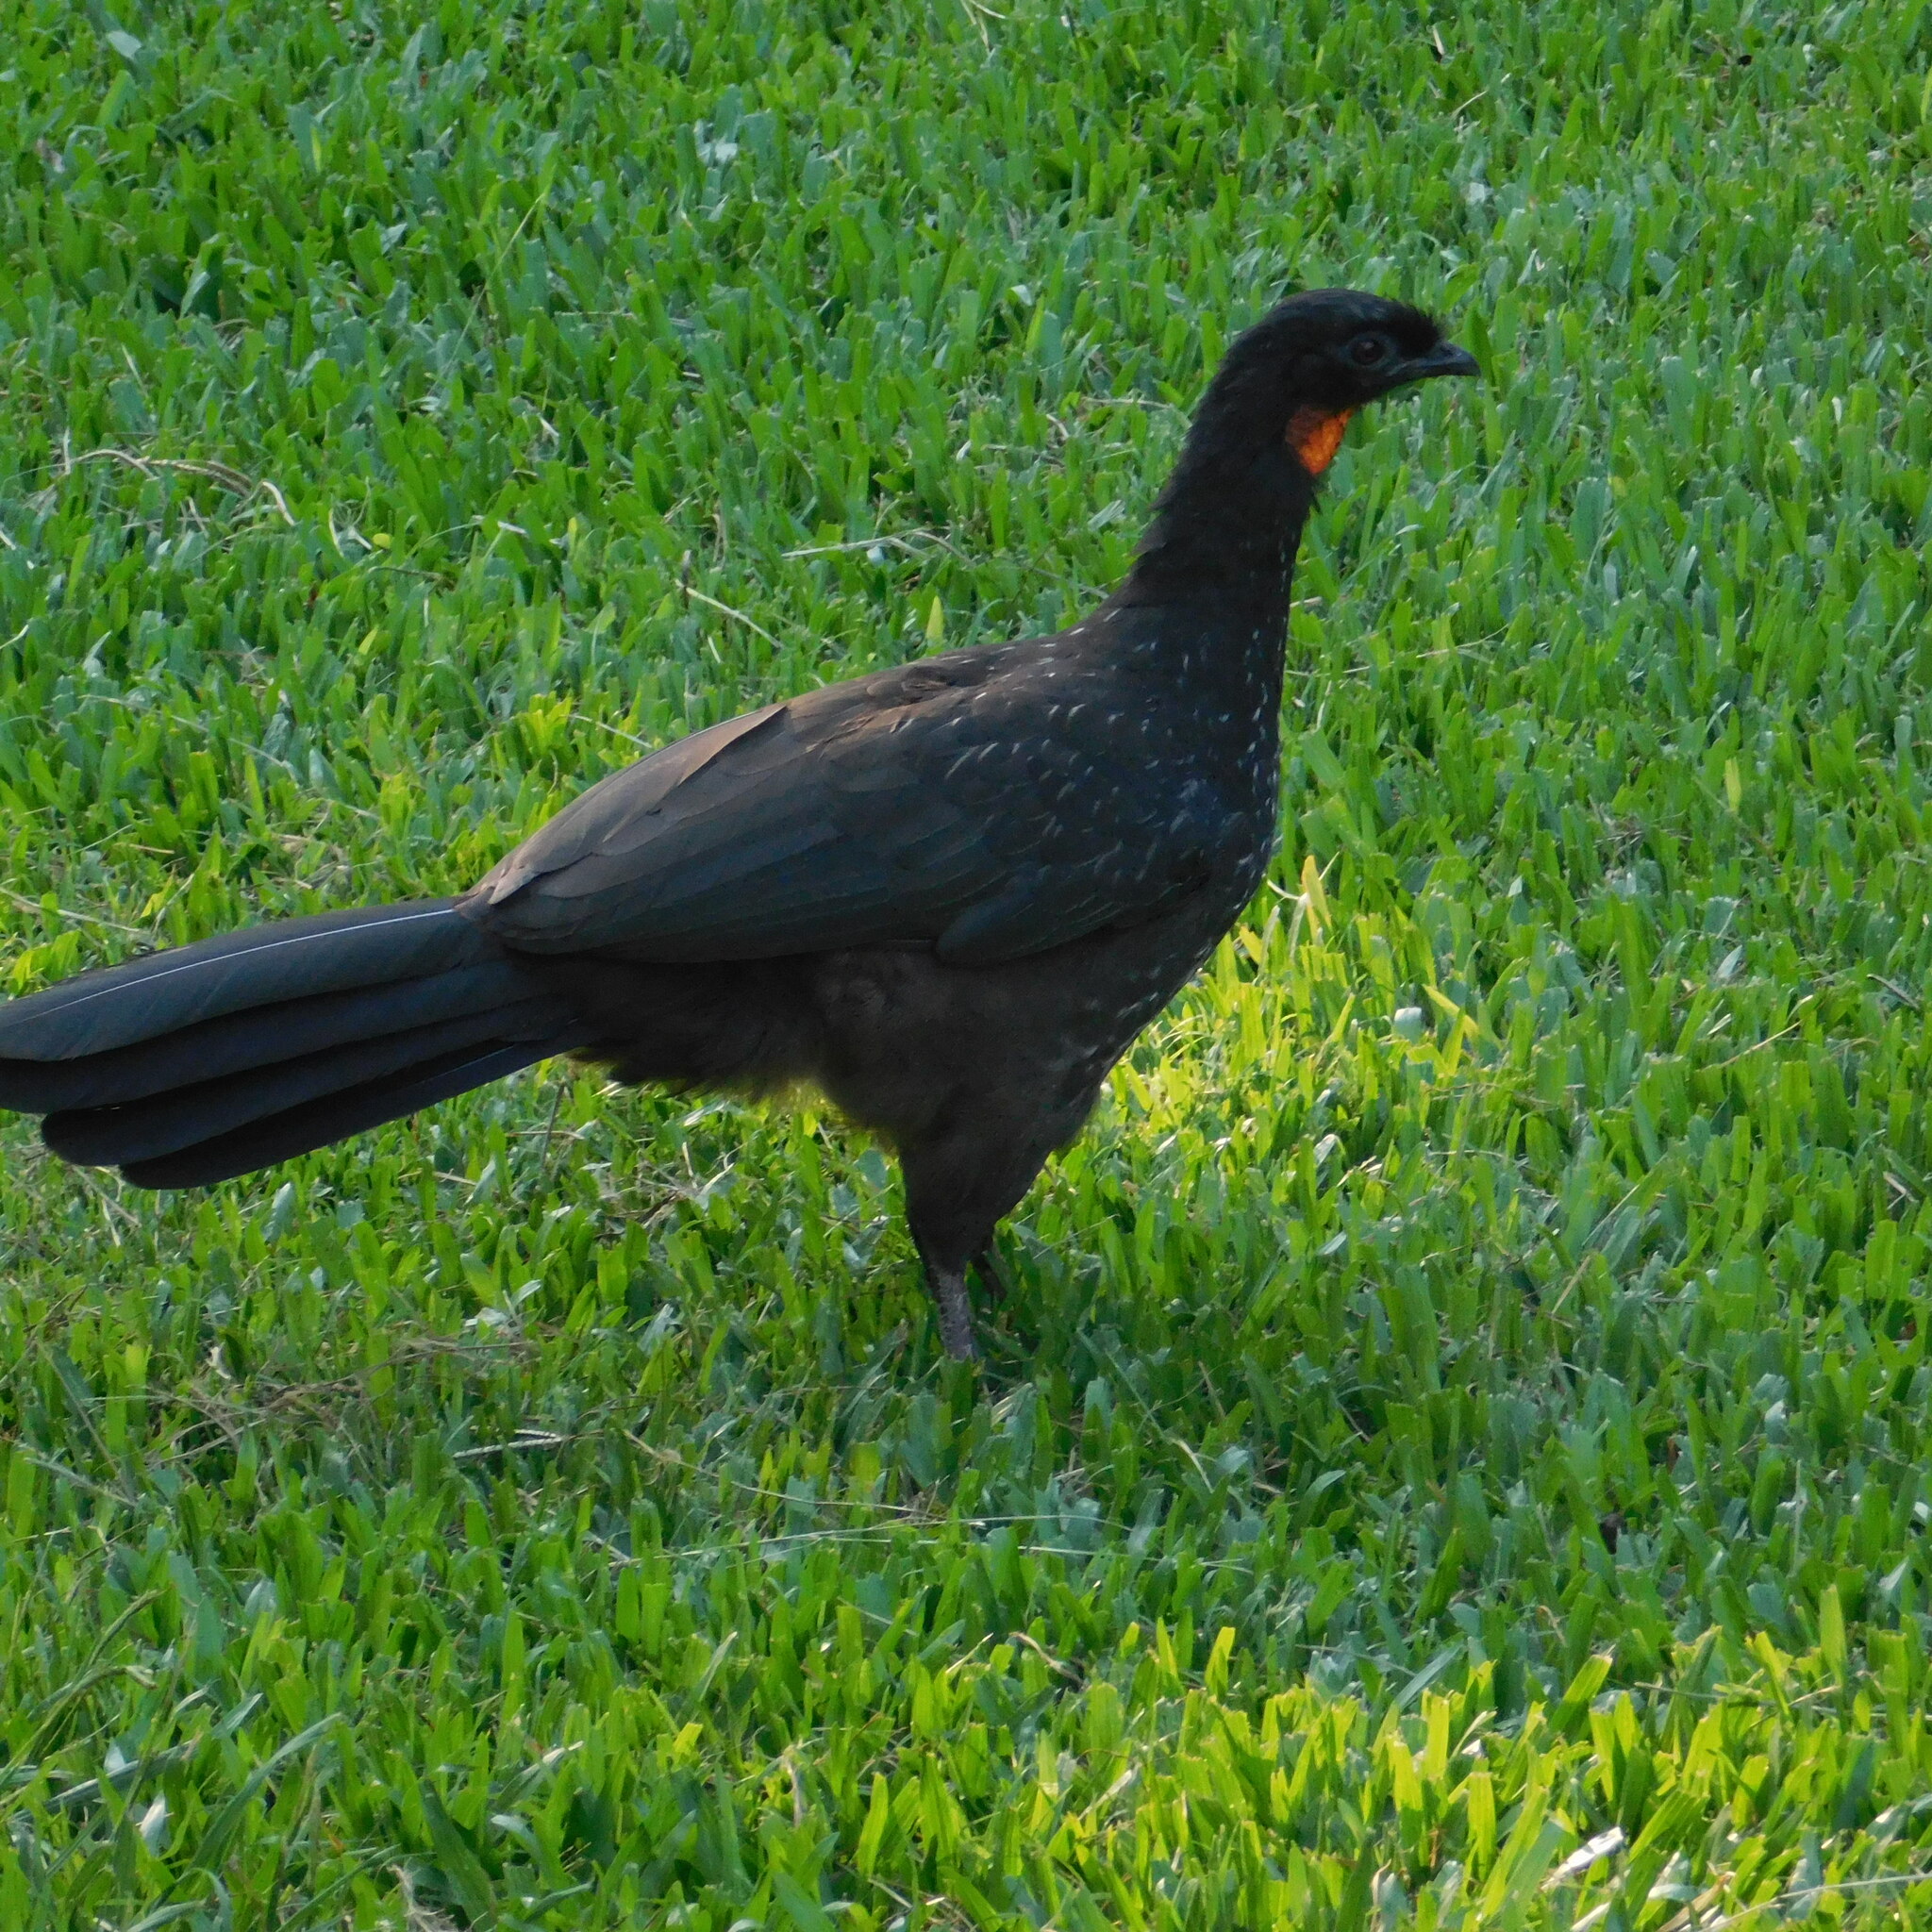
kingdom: Animalia
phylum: Chordata
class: Aves
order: Galliformes
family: Cracidae
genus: Penelope
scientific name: Penelope obscura
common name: Dusky-legged guan
